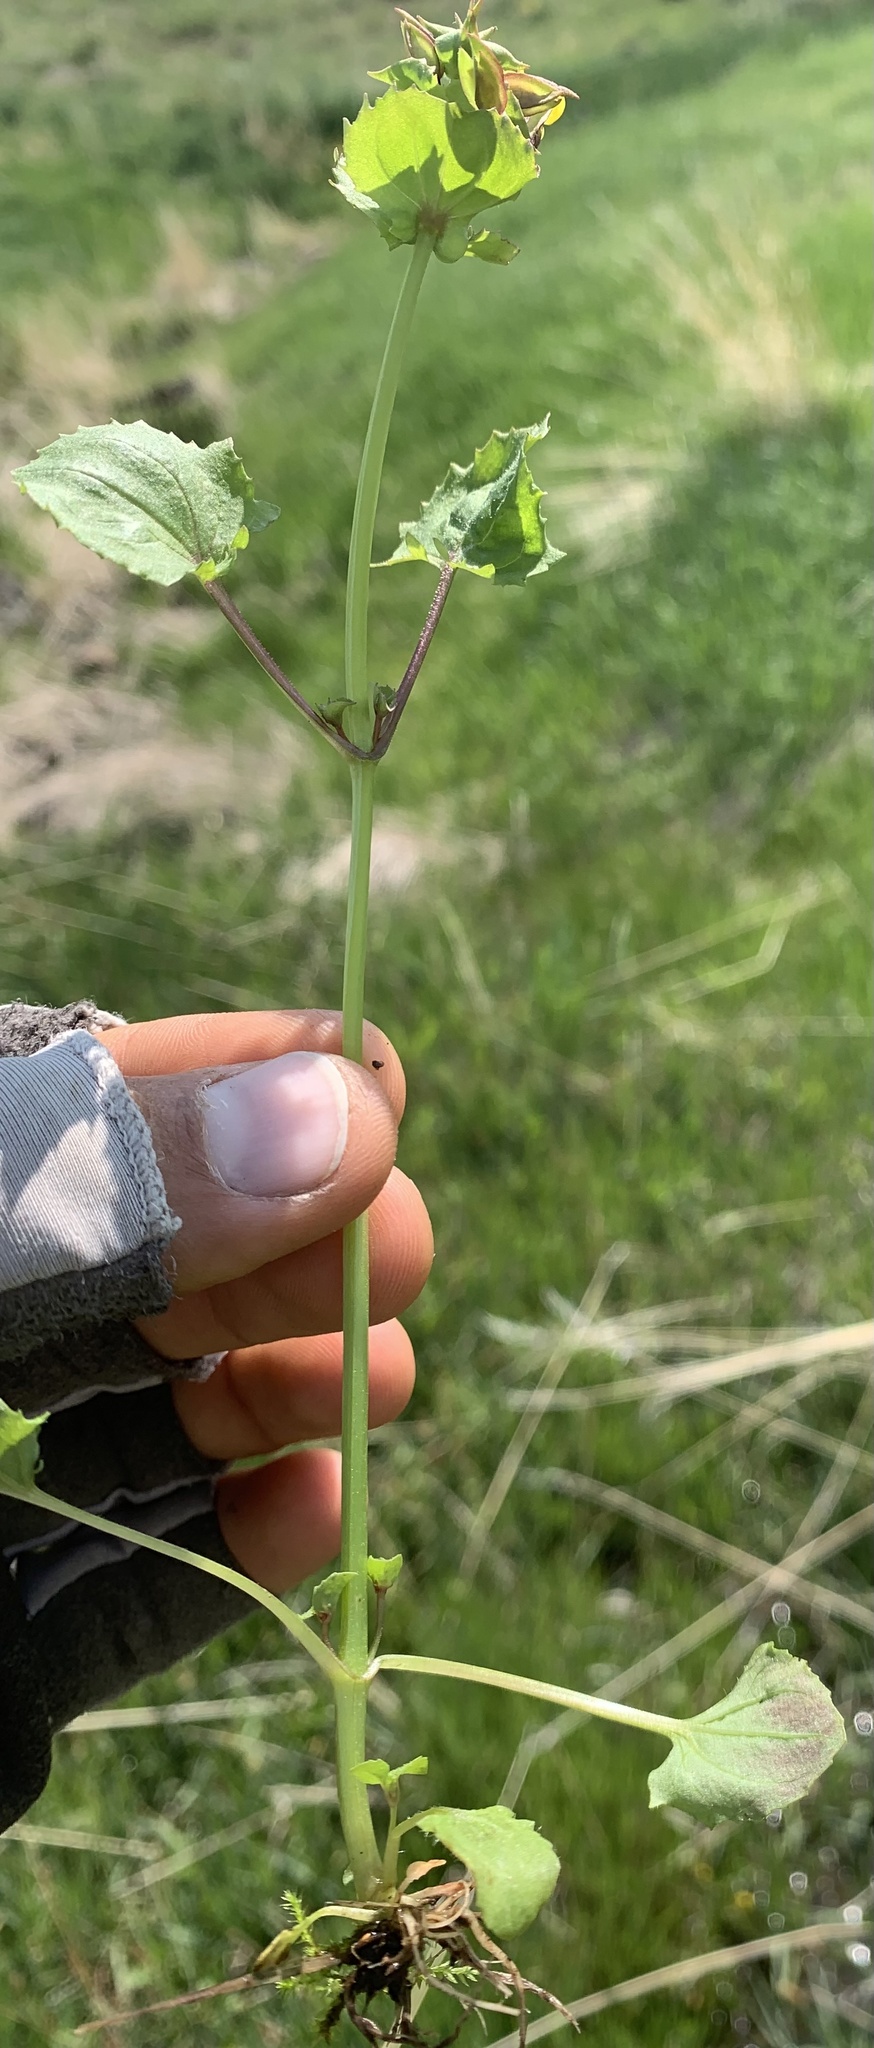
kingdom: Plantae
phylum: Tracheophyta
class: Magnoliopsida
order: Lamiales
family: Phrymaceae
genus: Erythranthe
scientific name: Erythranthe nasuta
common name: Sooke monkeyflower
